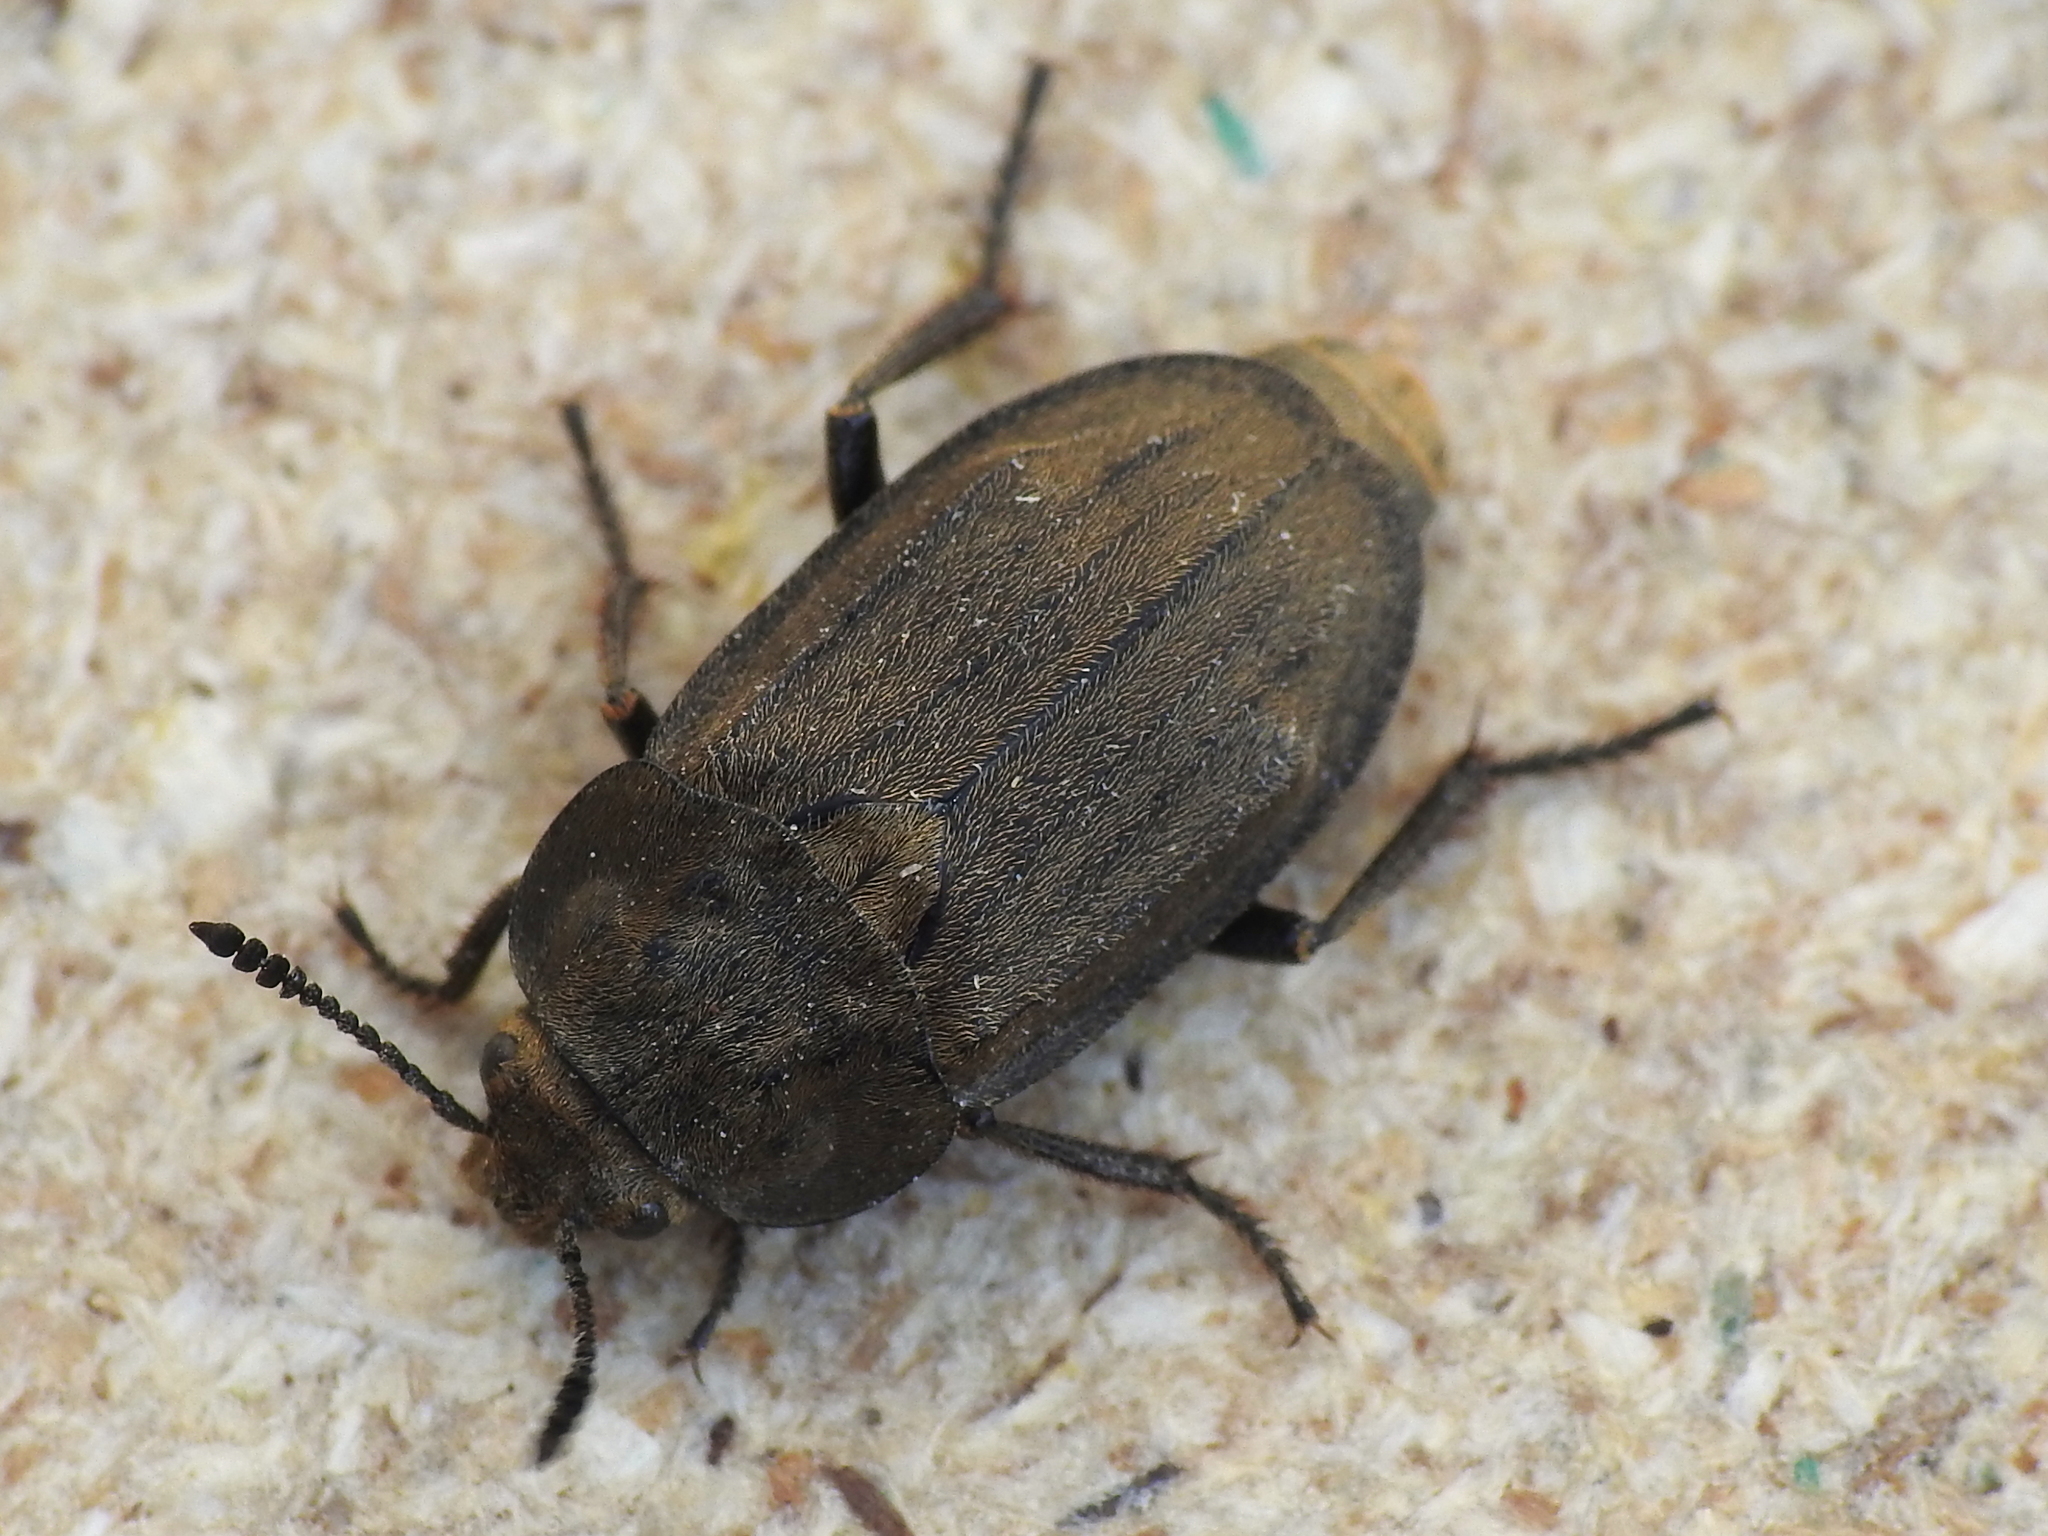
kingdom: Animalia
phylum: Arthropoda
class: Insecta
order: Coleoptera
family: Staphylinidae
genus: Aclypea
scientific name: Aclypea opaca
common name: Silphid beetle
